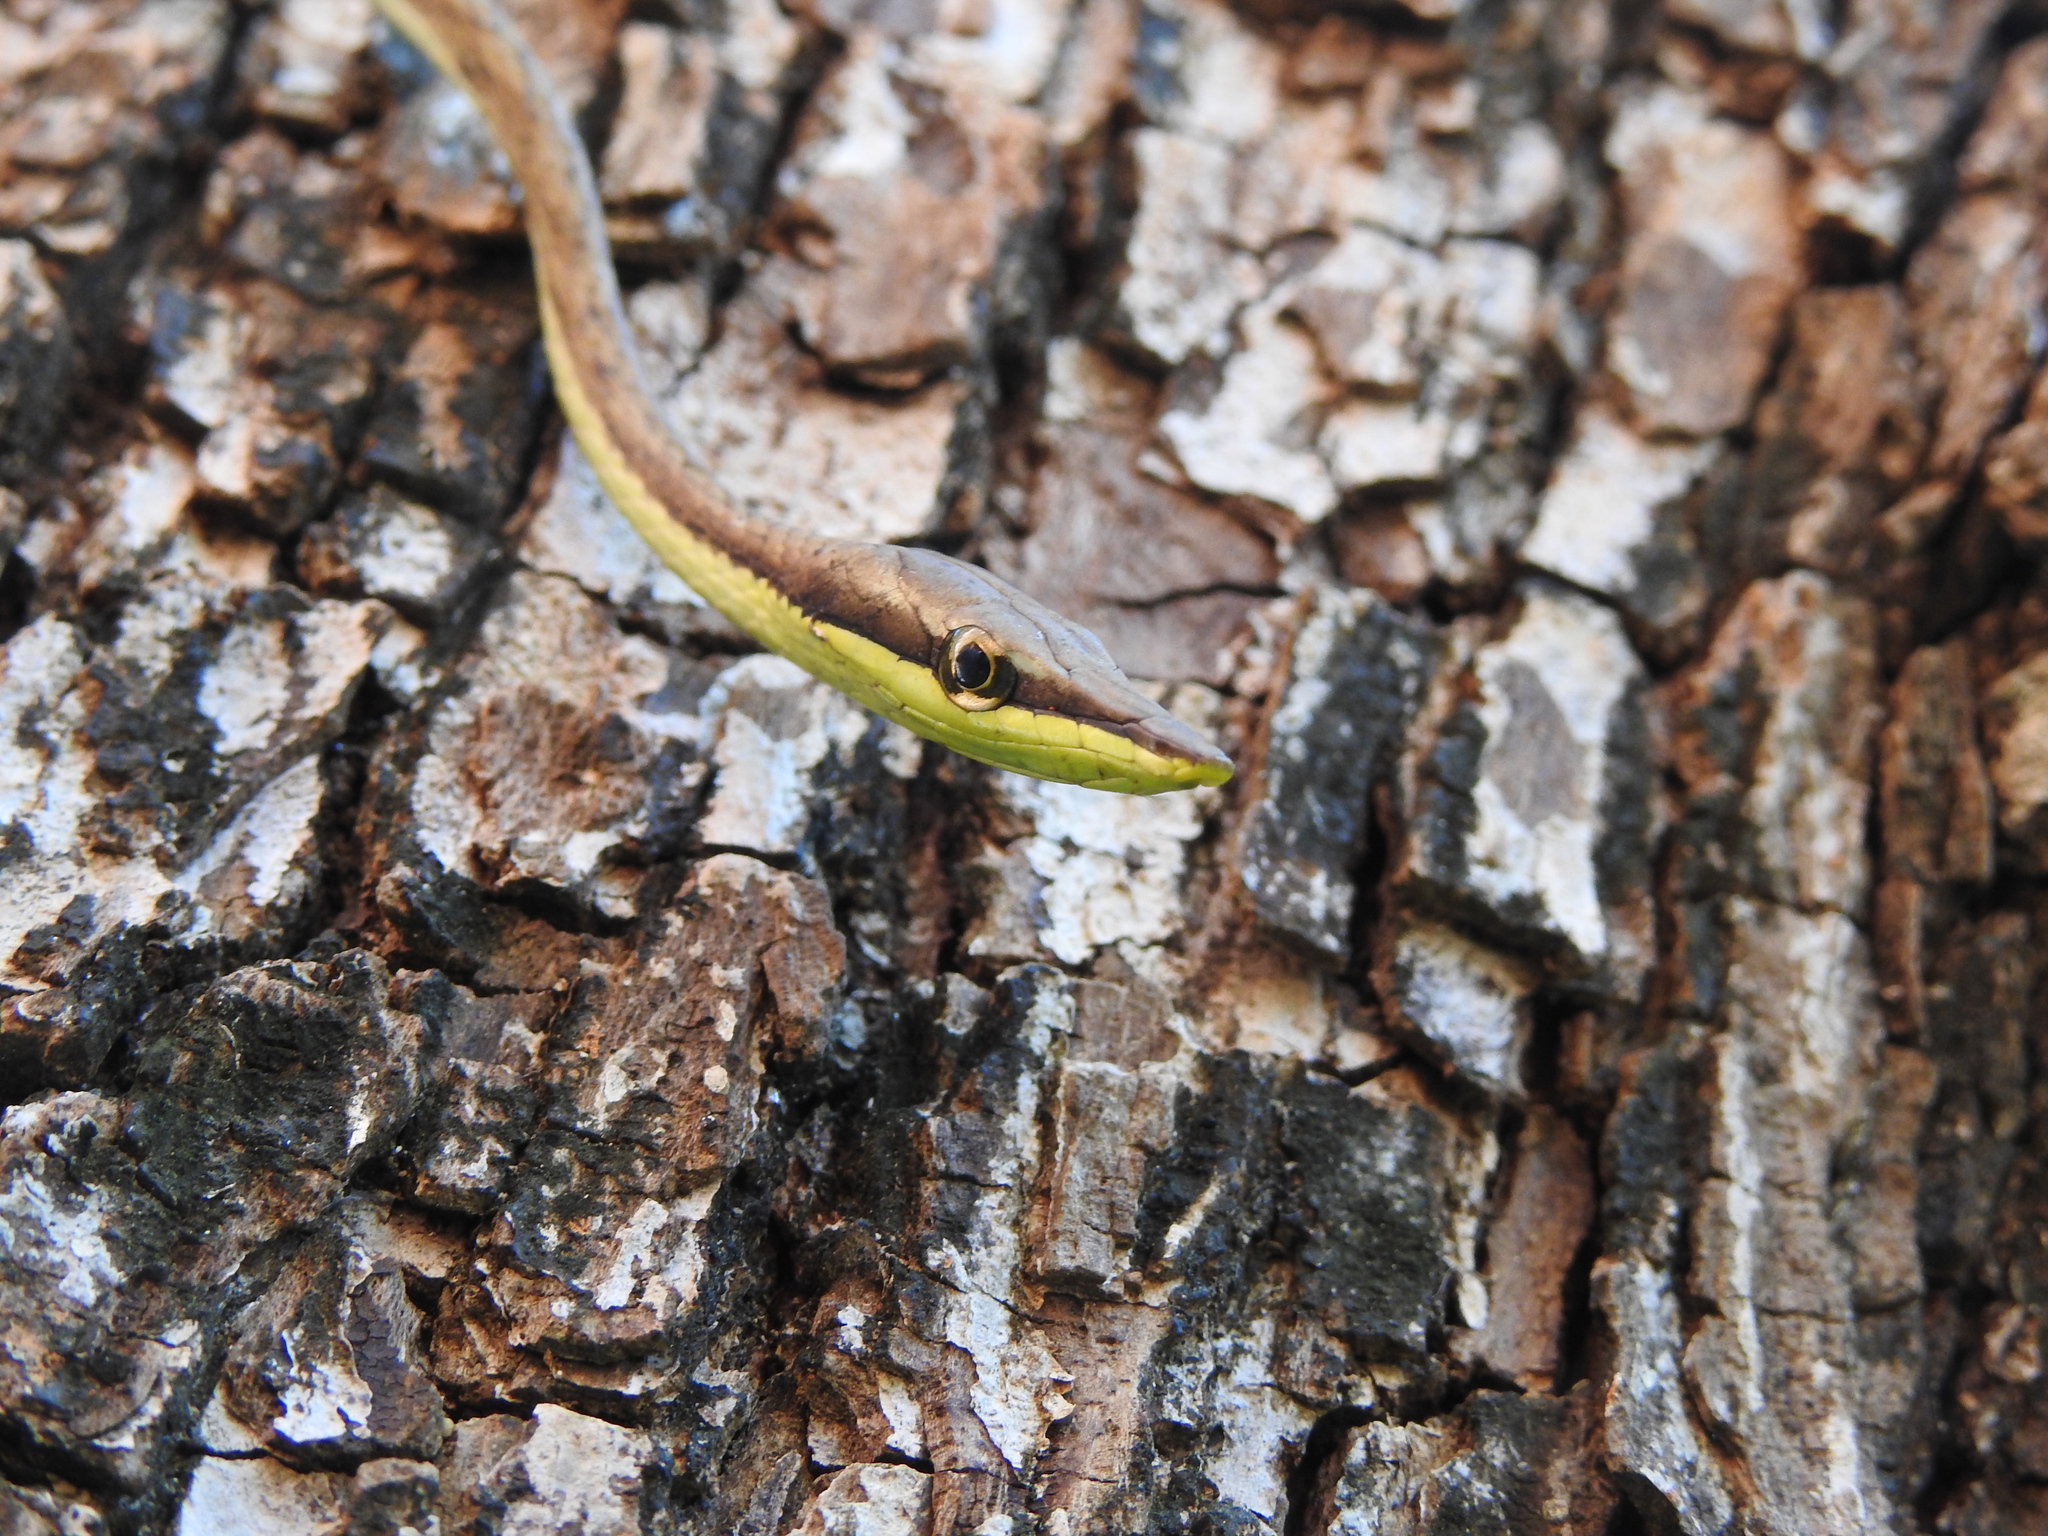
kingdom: Animalia
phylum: Chordata
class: Squamata
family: Colubridae
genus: Oxybelis
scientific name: Oxybelis microphthalmus
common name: Thrornscrub vine snake
